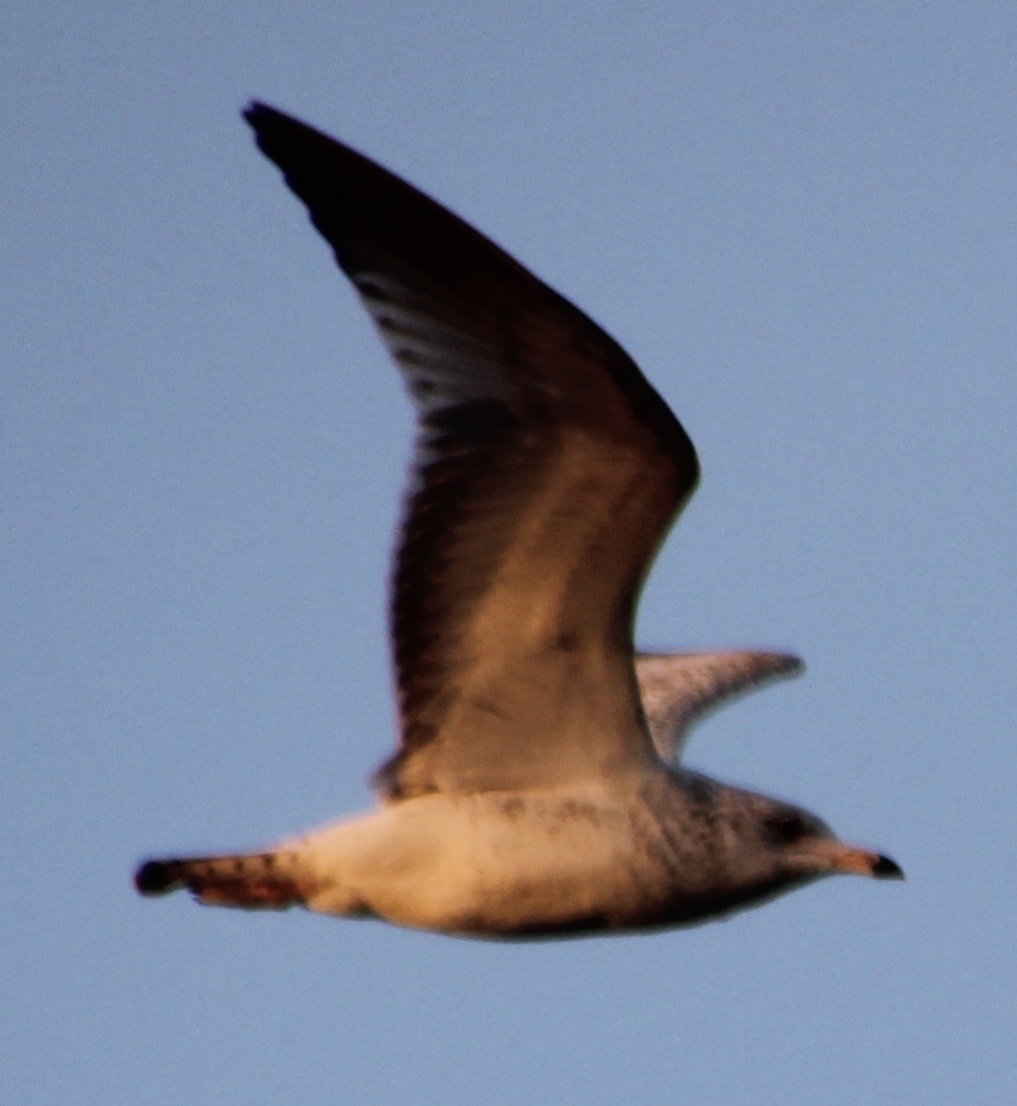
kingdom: Animalia
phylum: Chordata
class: Aves
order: Charadriiformes
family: Laridae
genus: Larus
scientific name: Larus delawarensis
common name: Ring-billed gull
